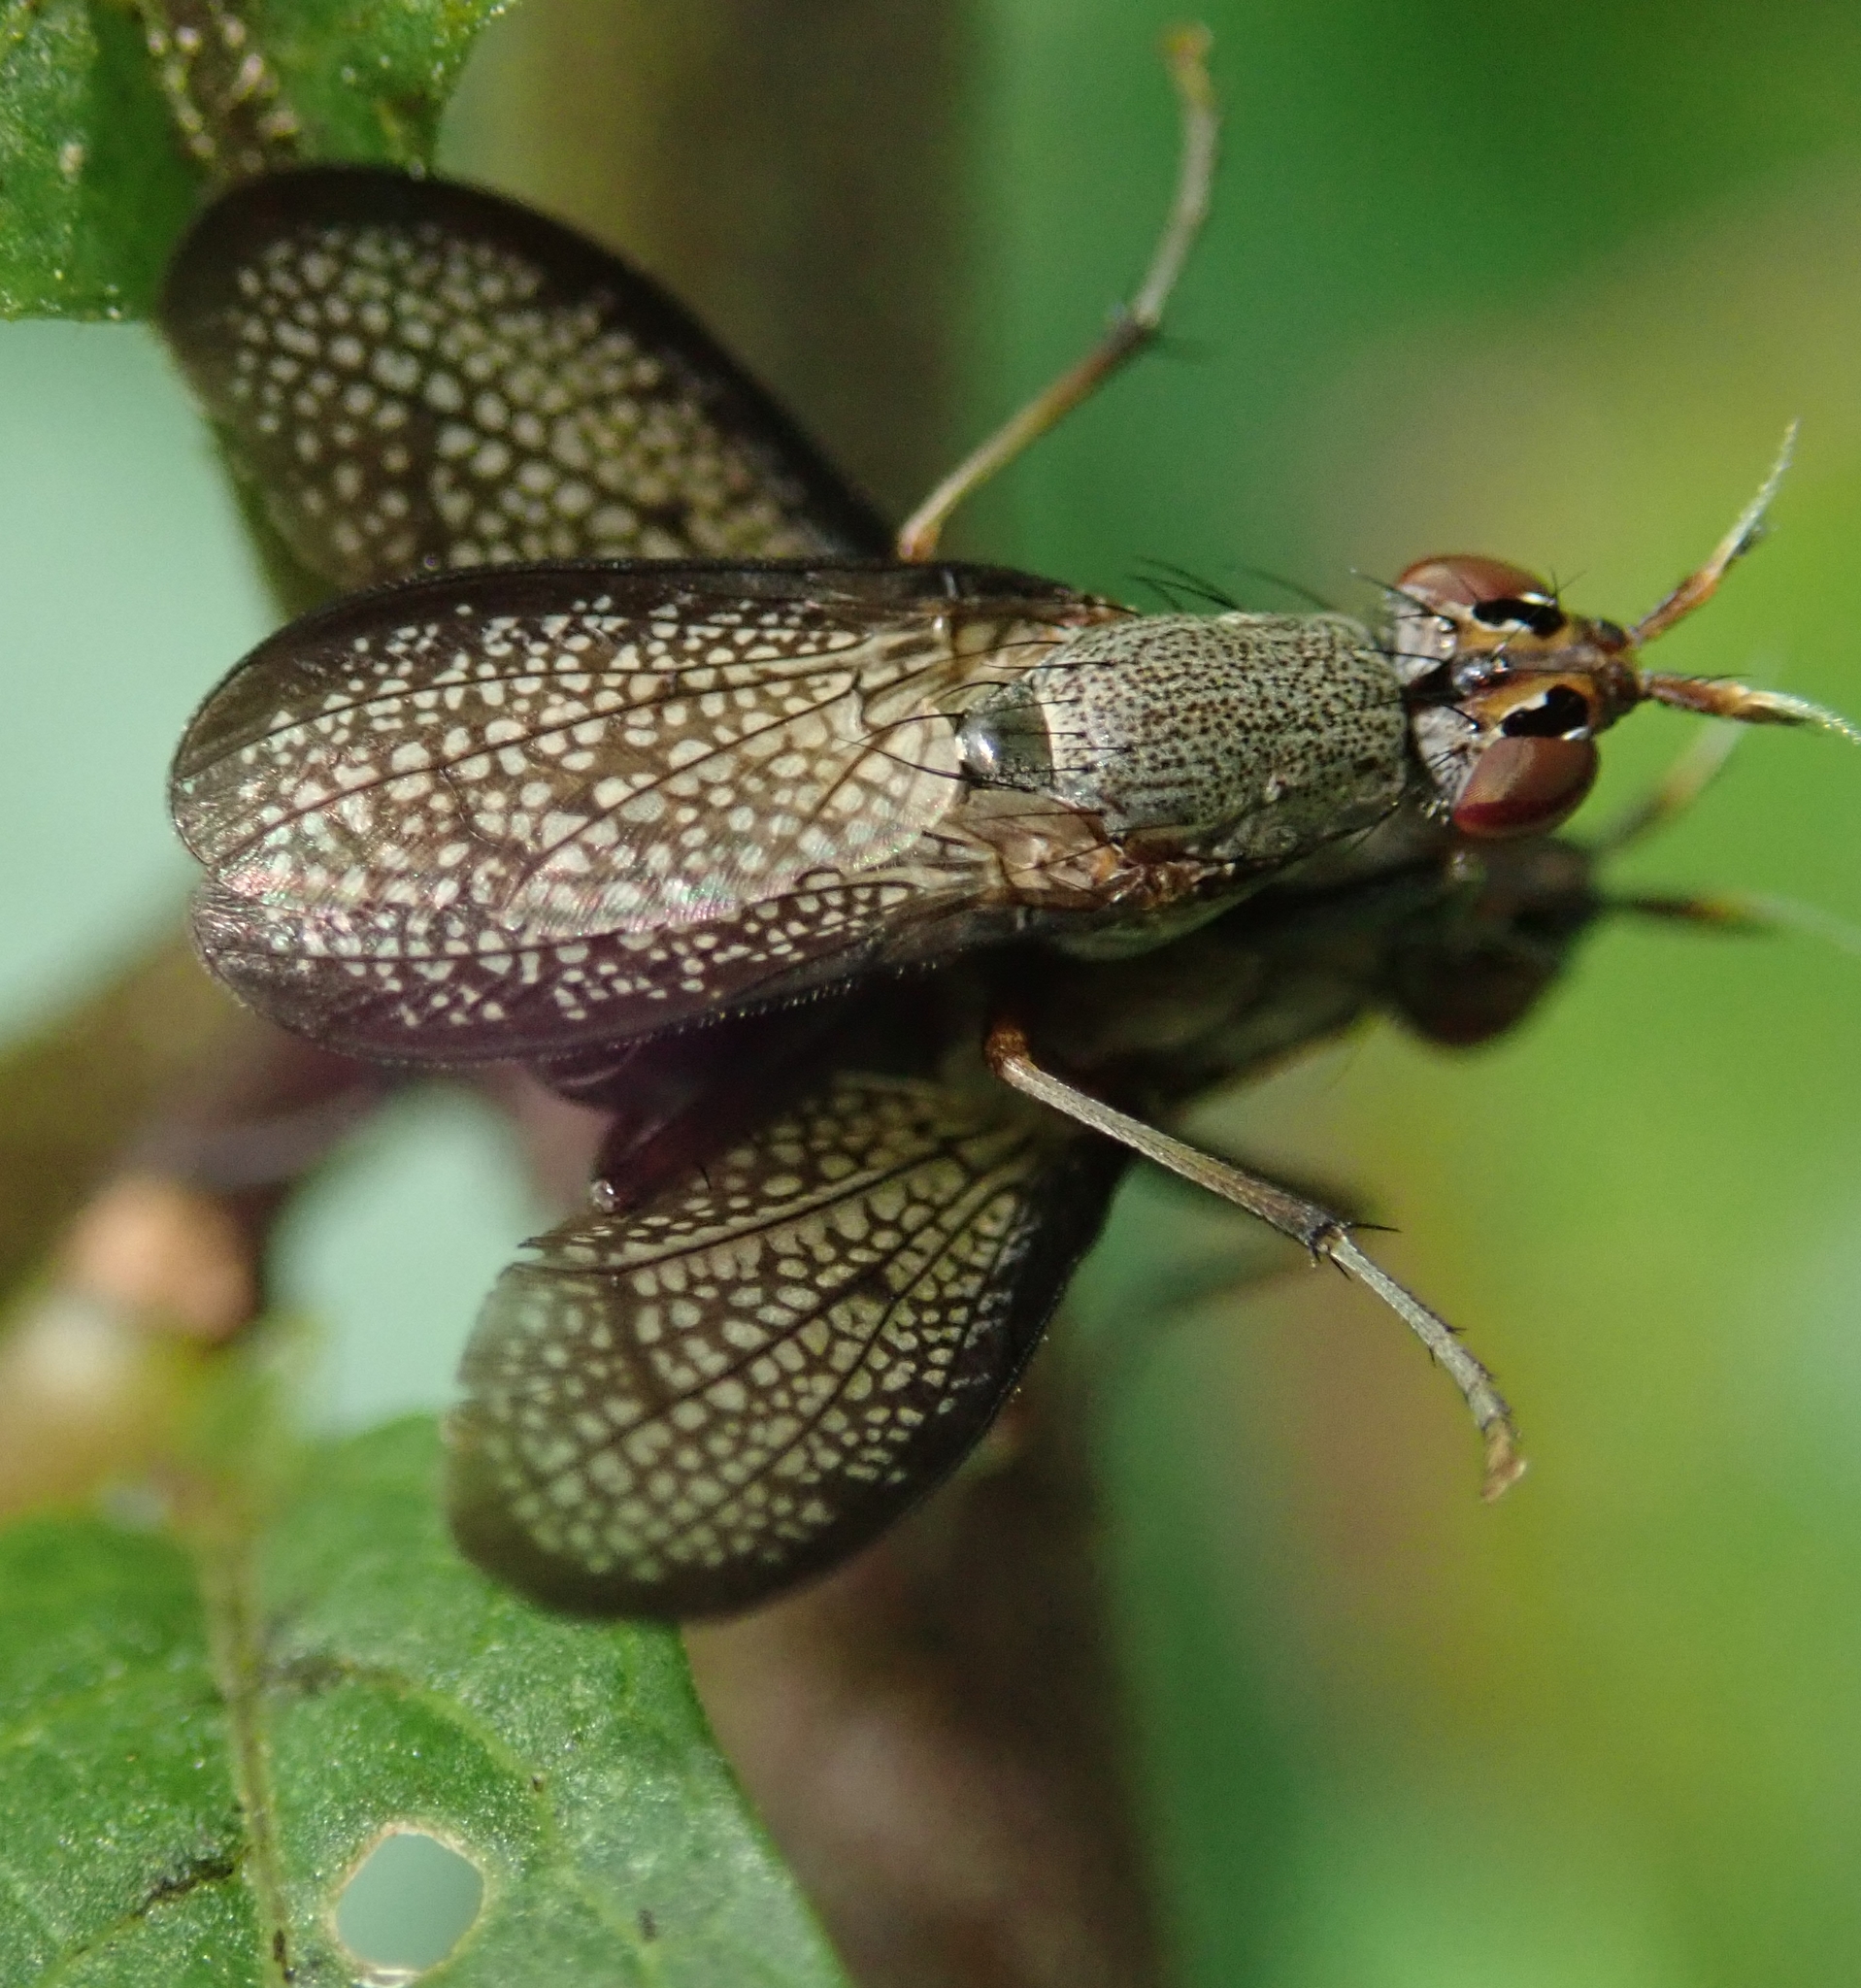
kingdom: Animalia
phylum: Arthropoda
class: Insecta
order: Diptera
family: Sciomyzidae
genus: Coremacera
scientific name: Coremacera marginata
